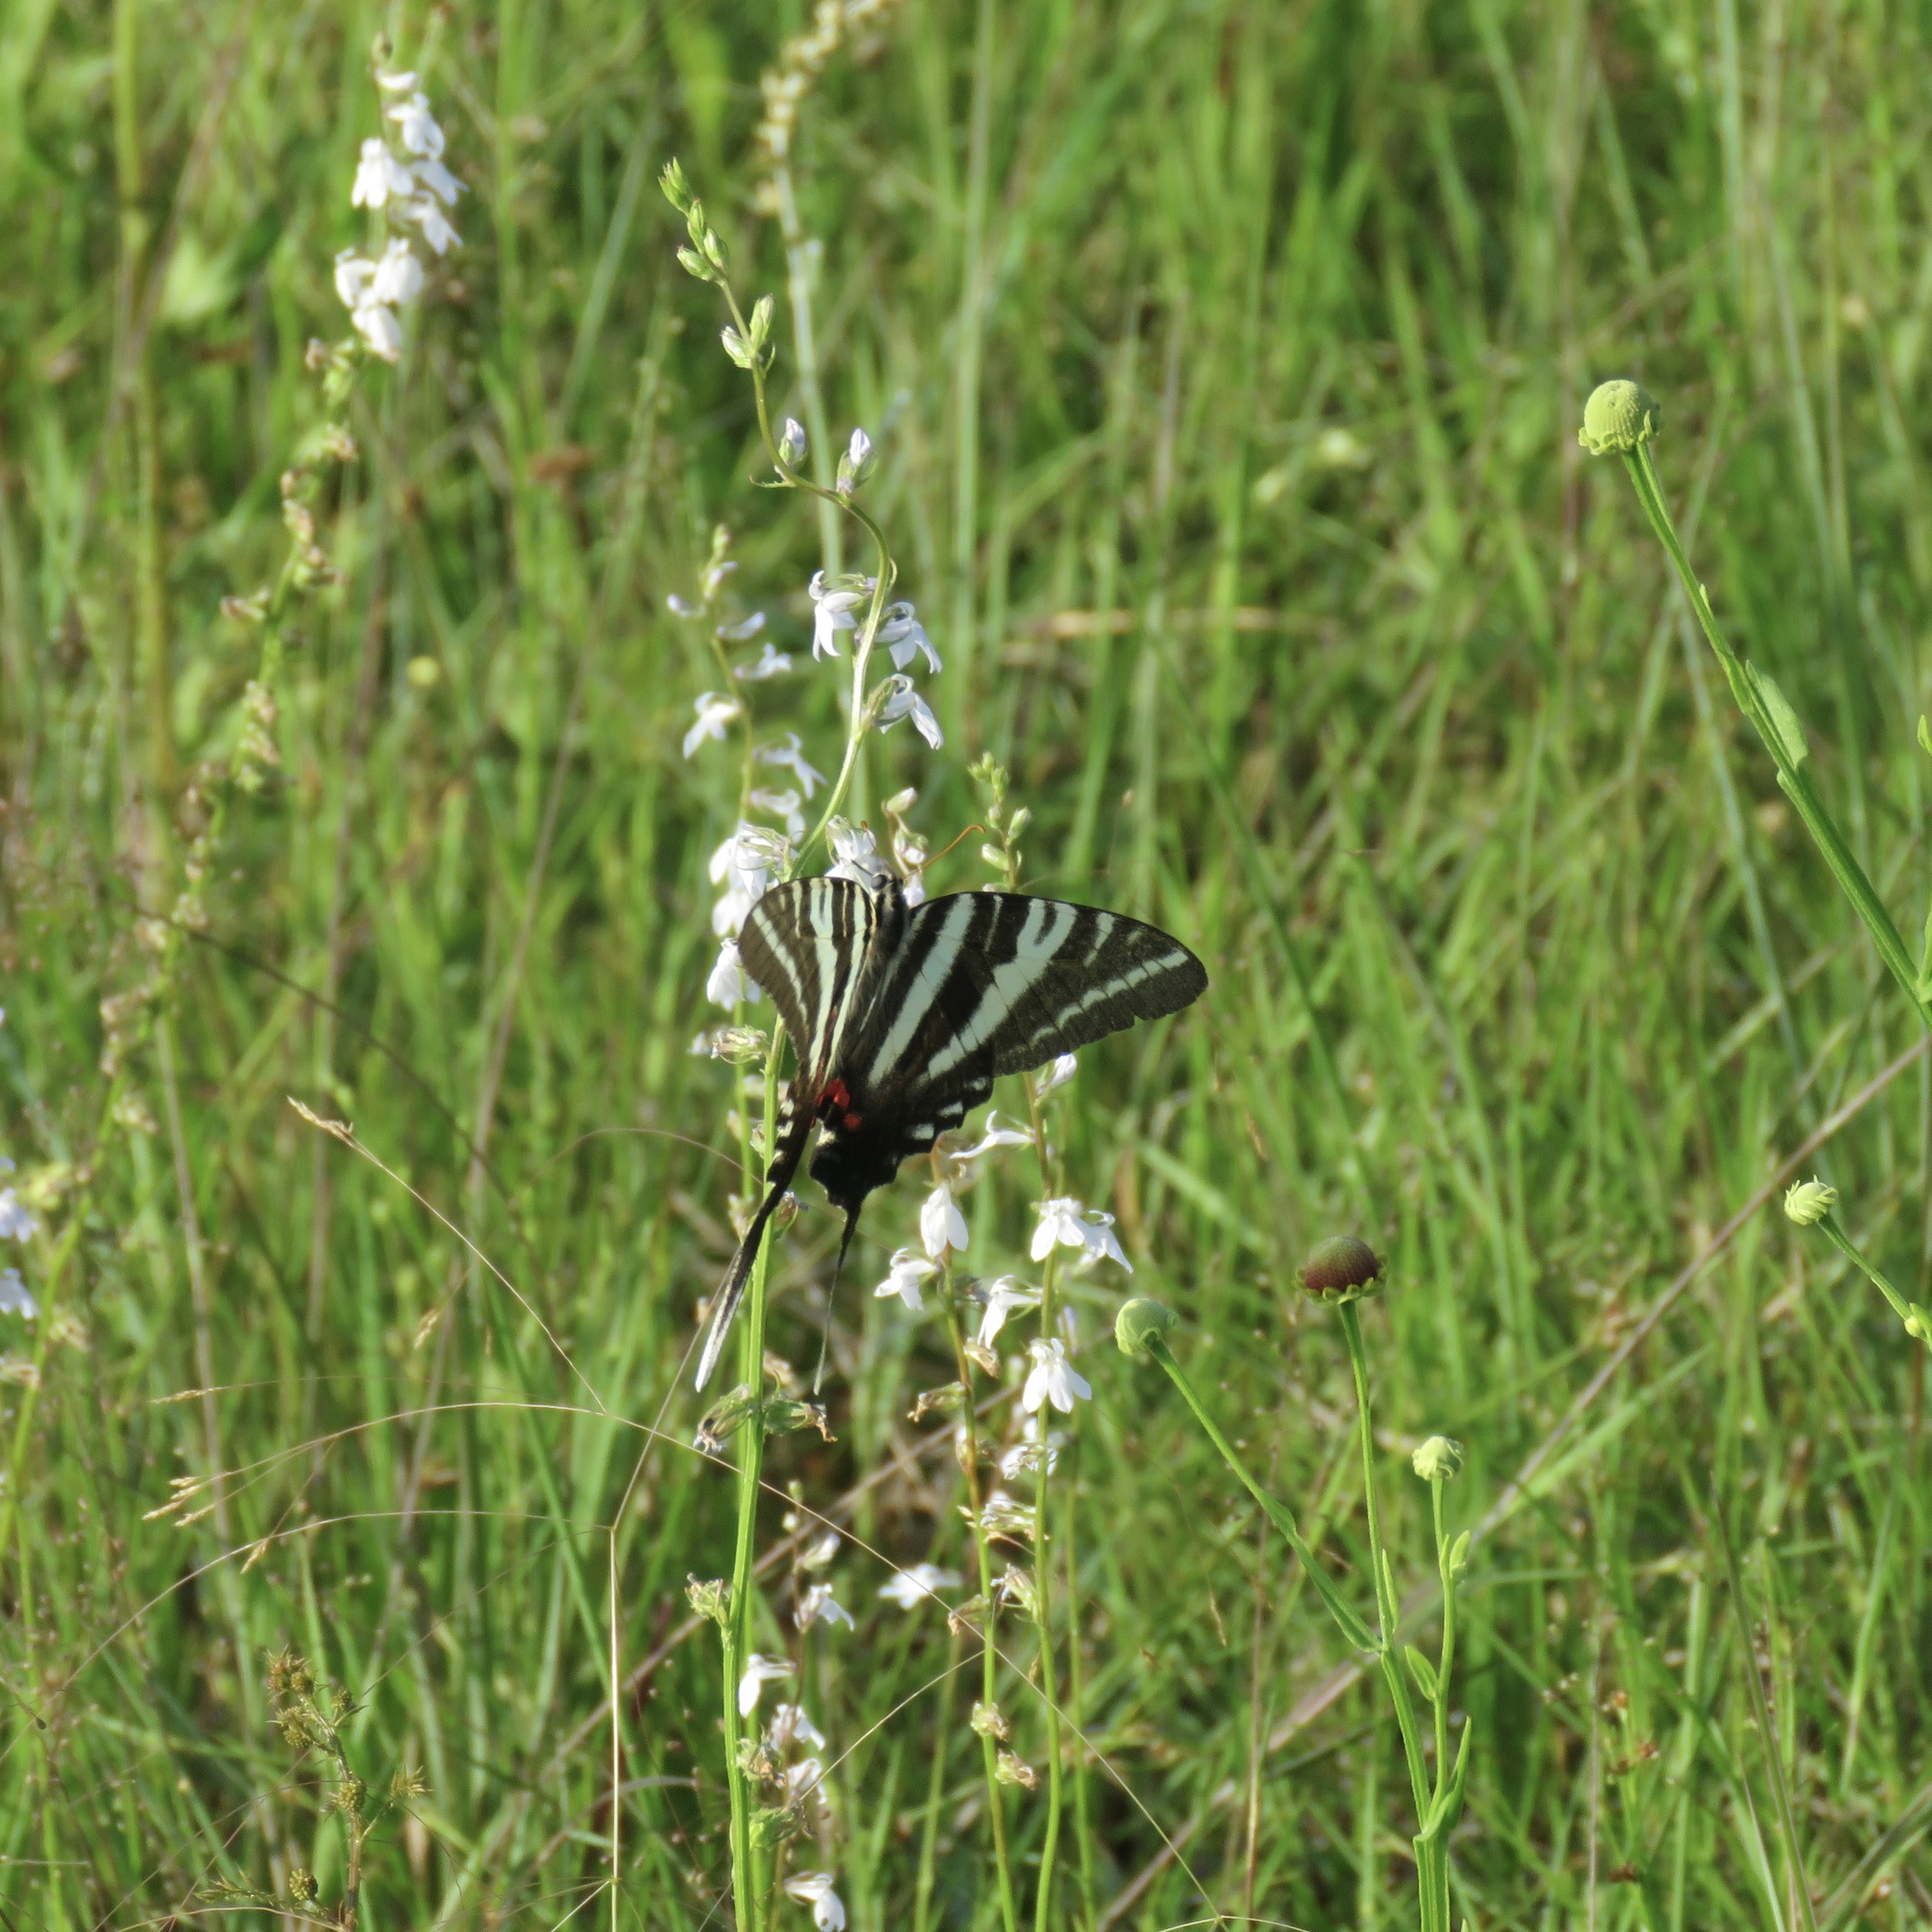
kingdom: Animalia
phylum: Arthropoda
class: Insecta
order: Lepidoptera
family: Papilionidae
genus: Protographium
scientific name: Protographium marcellus
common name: Zebra swallowtail
